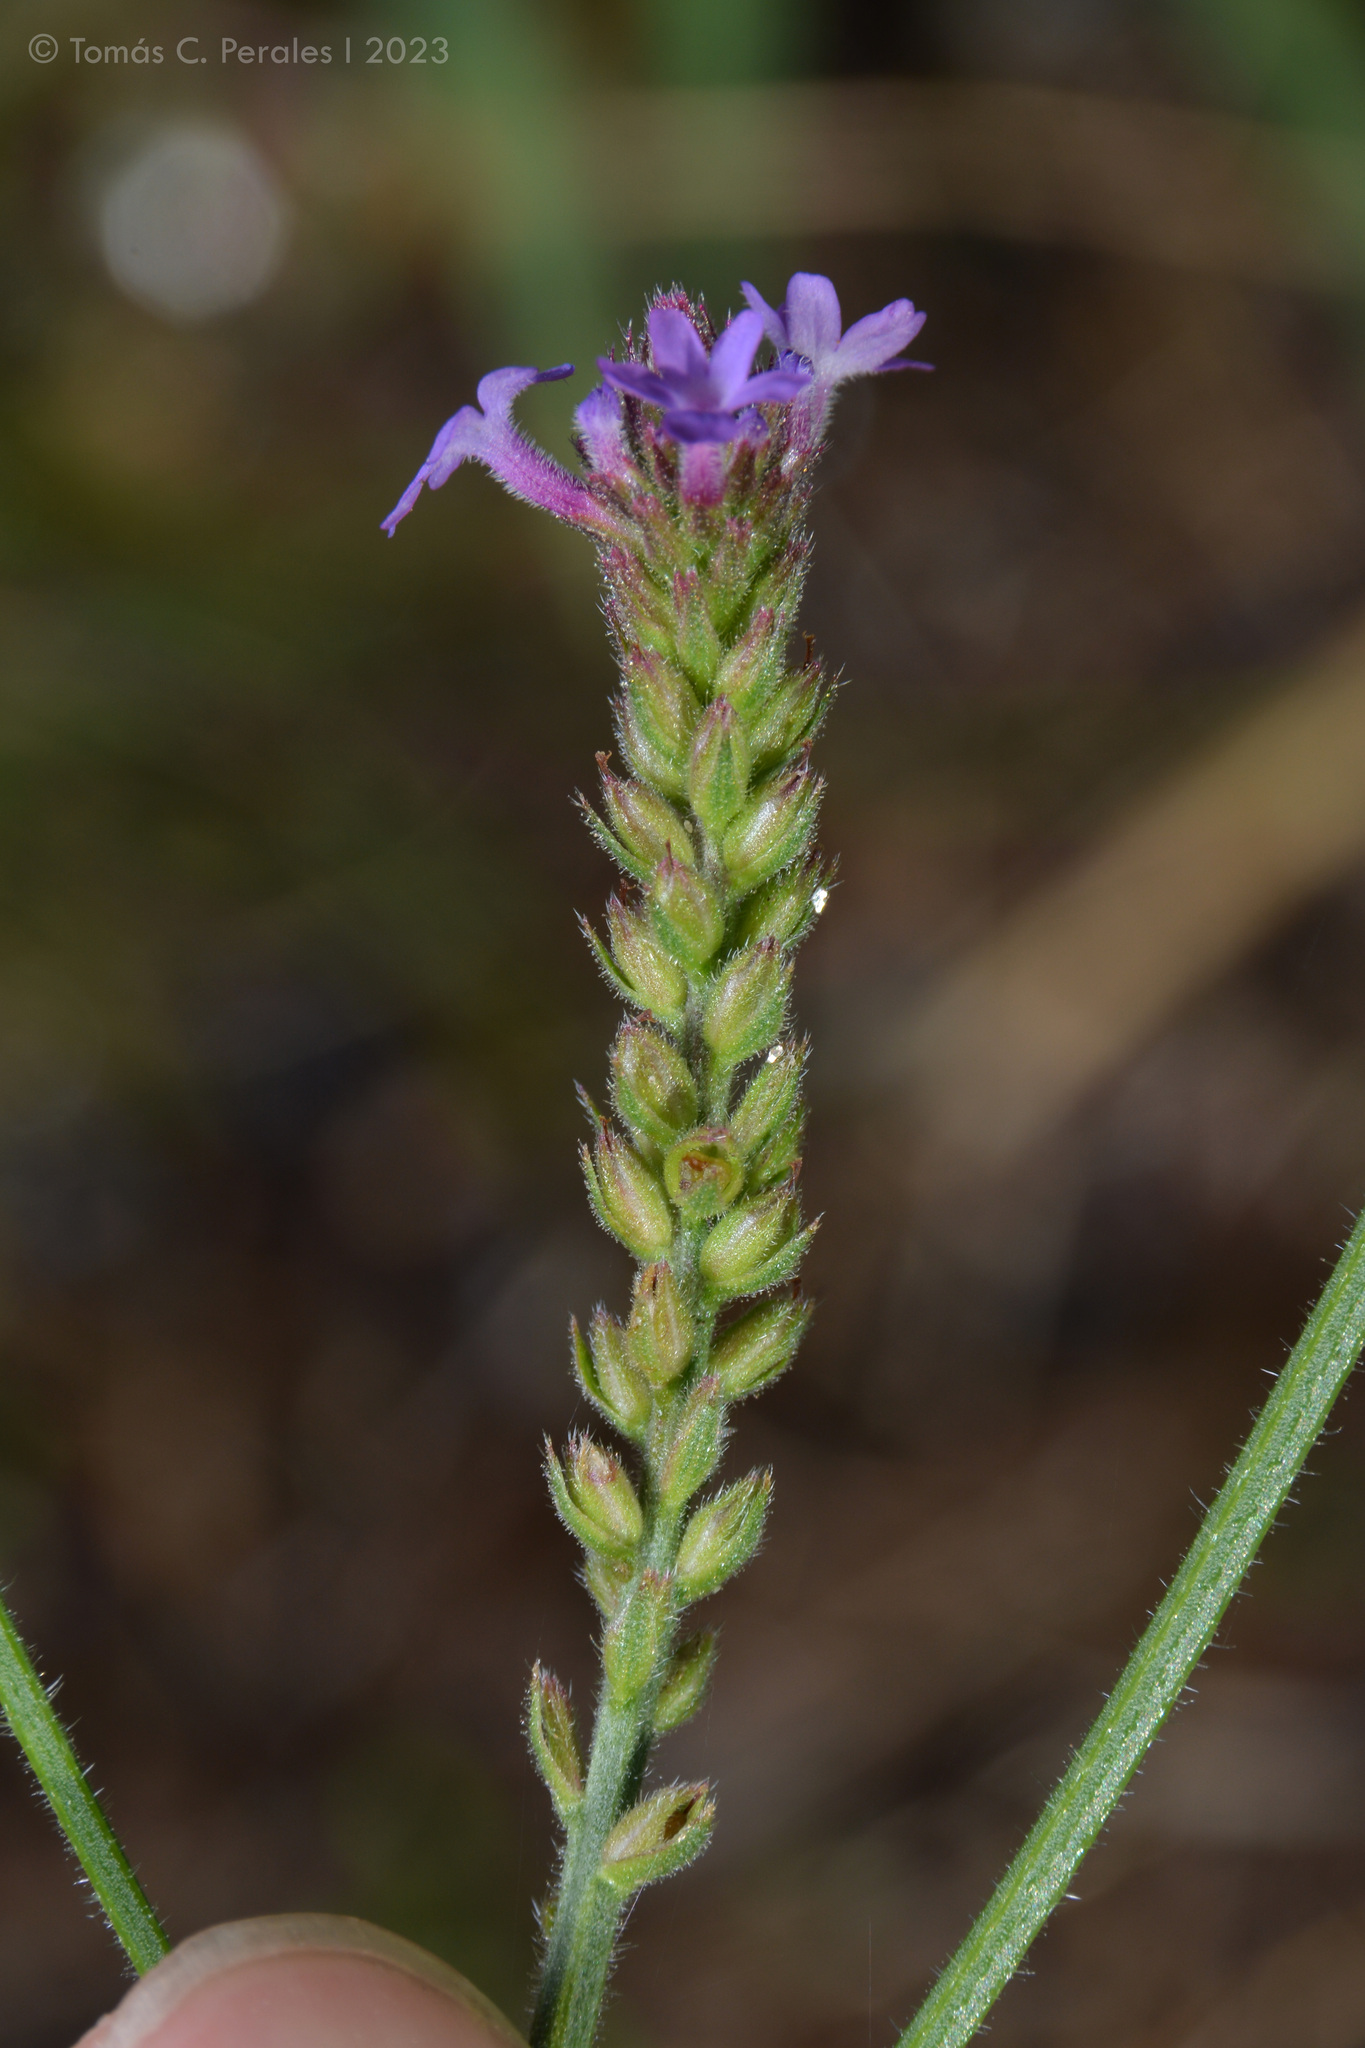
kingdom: Plantae
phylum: Tracheophyta
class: Magnoliopsida
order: Lamiales
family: Verbenaceae
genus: Verbena
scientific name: Verbena litoralis
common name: Seashore vervain
